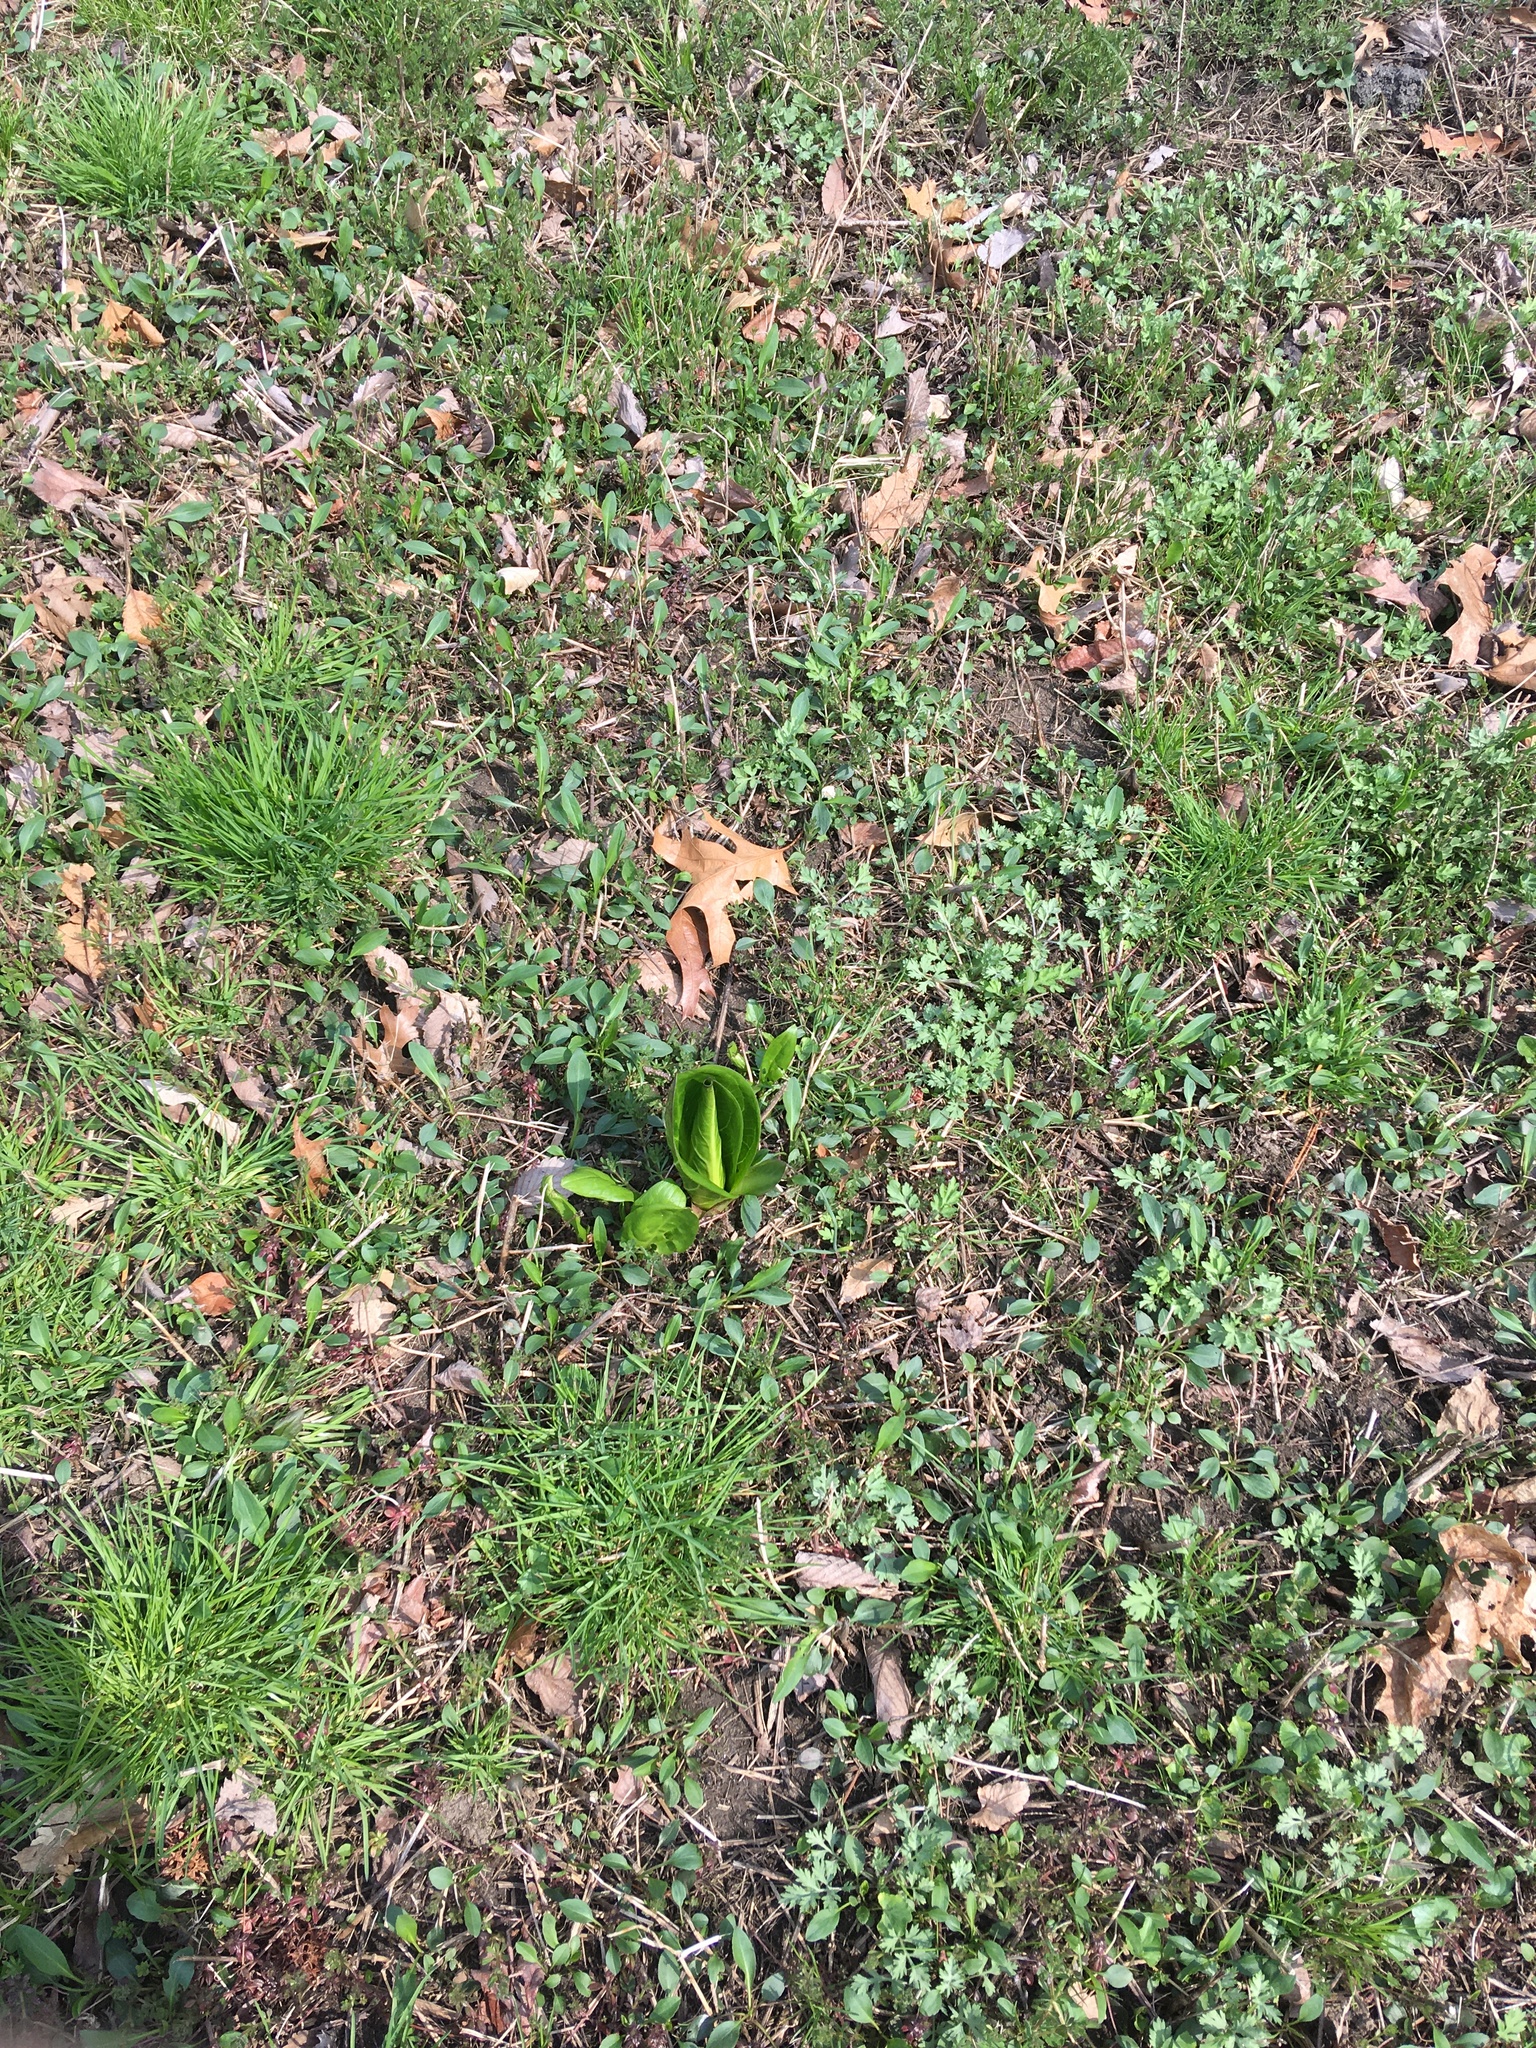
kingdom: Plantae
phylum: Tracheophyta
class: Liliopsida
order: Alismatales
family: Araceae
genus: Symplocarpus
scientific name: Symplocarpus foetidus
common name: Eastern skunk cabbage
